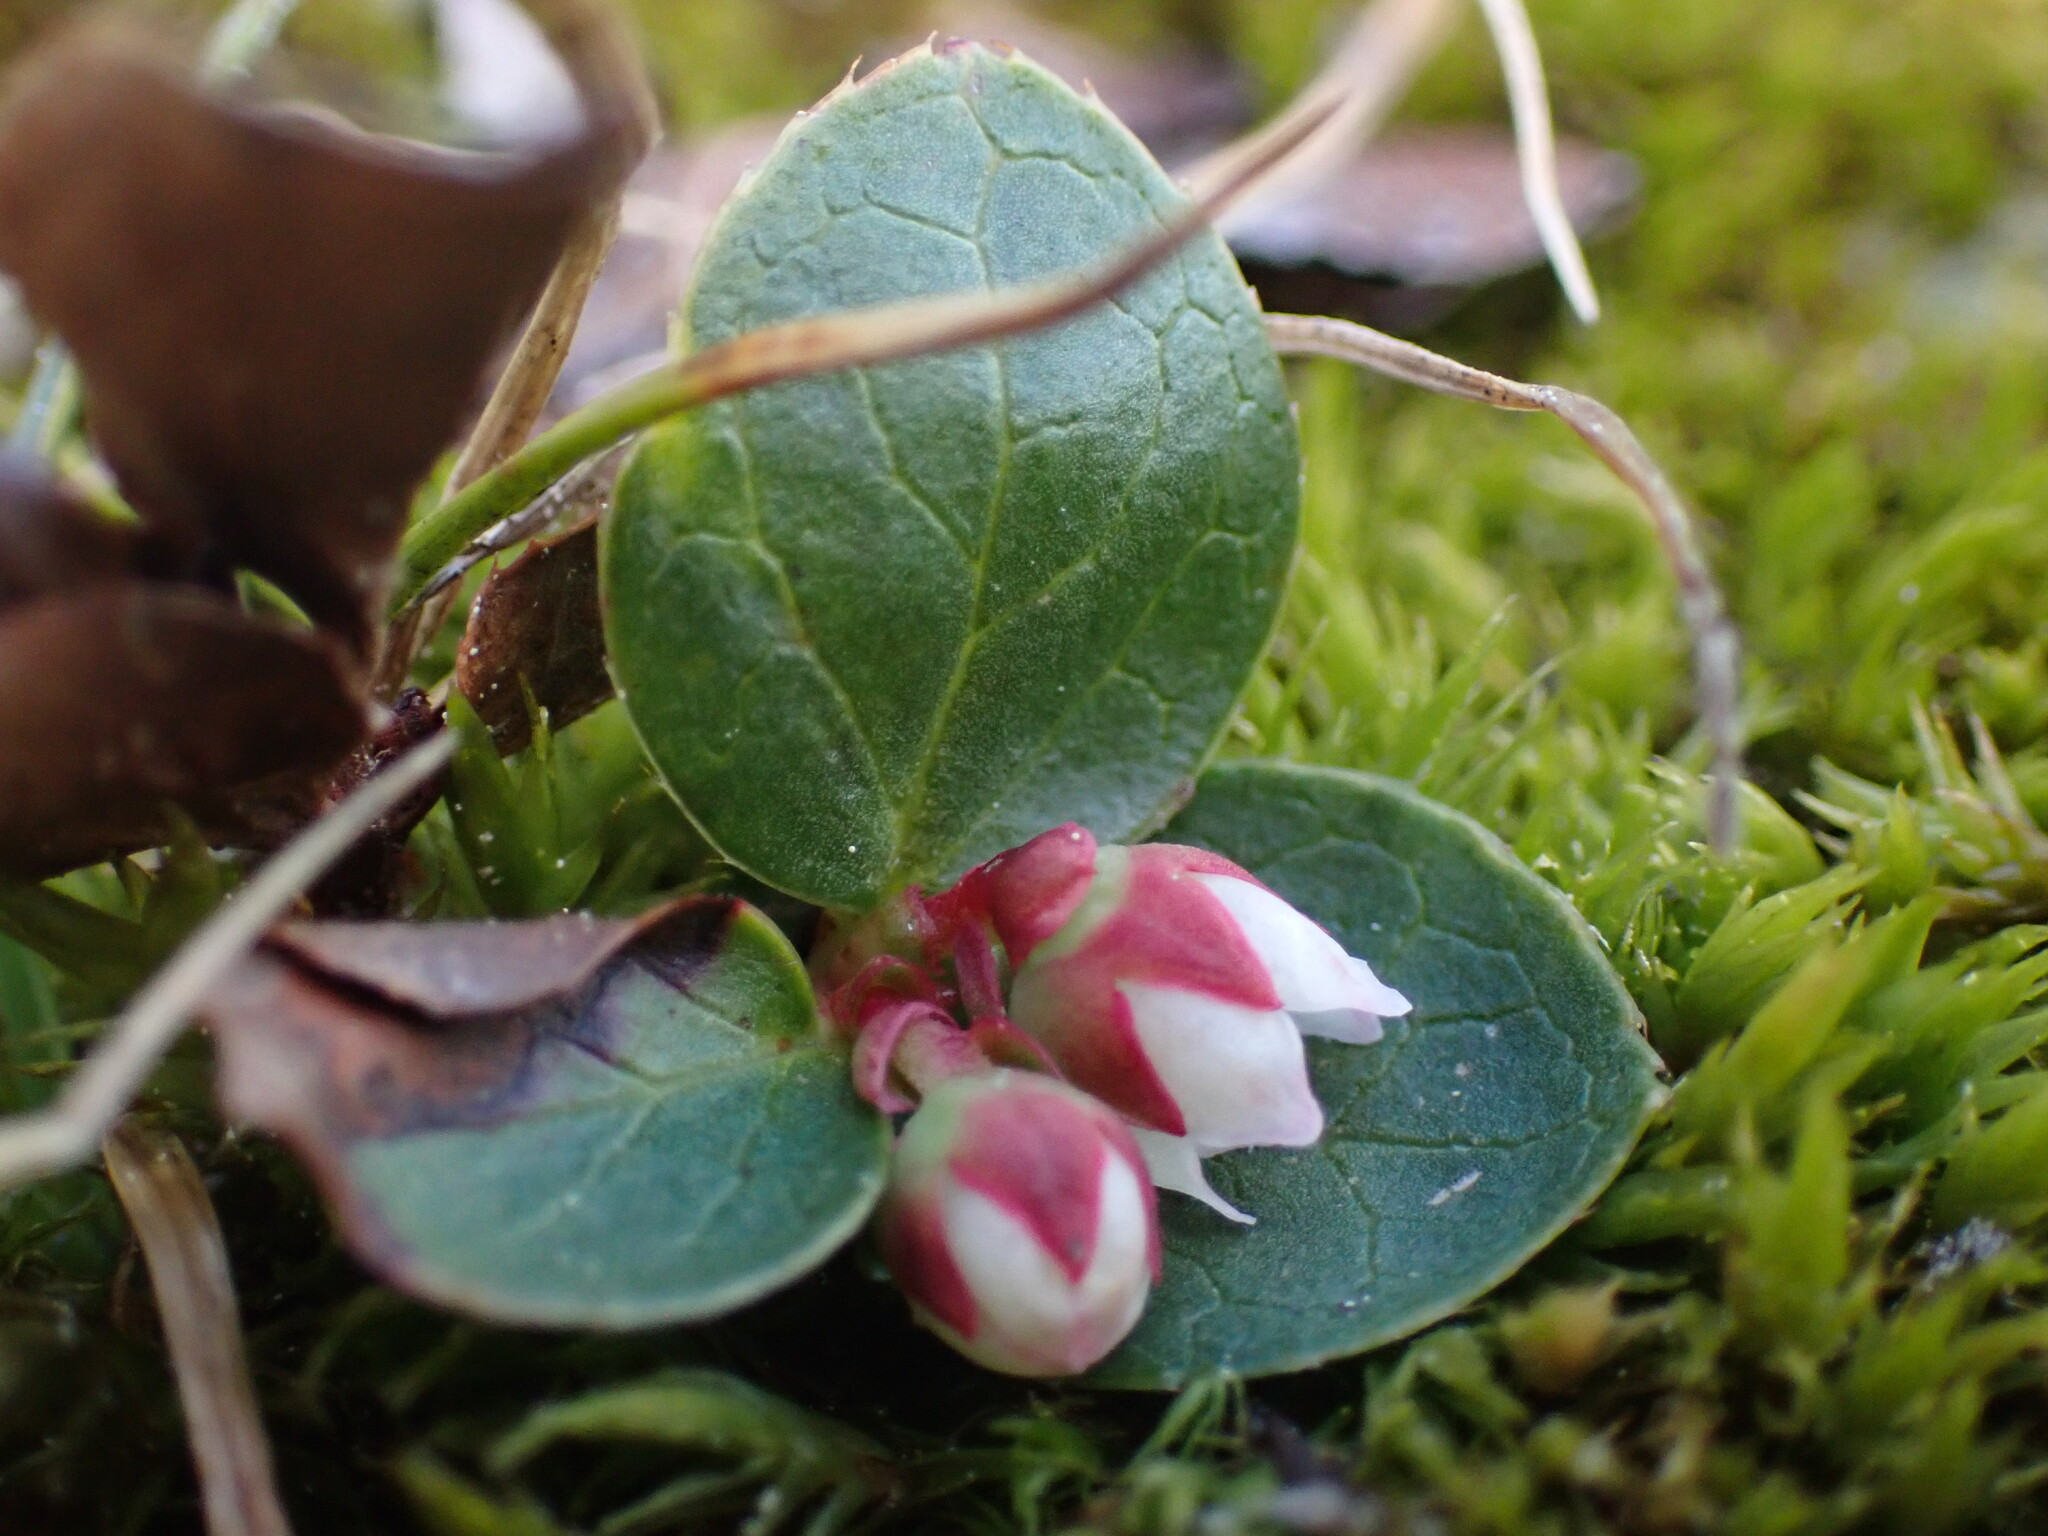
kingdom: Plantae
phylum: Tracheophyta
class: Magnoliopsida
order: Ericales
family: Ericaceae
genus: Gaultheria
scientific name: Gaultheria humifusa
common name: Alpine wintergreen
